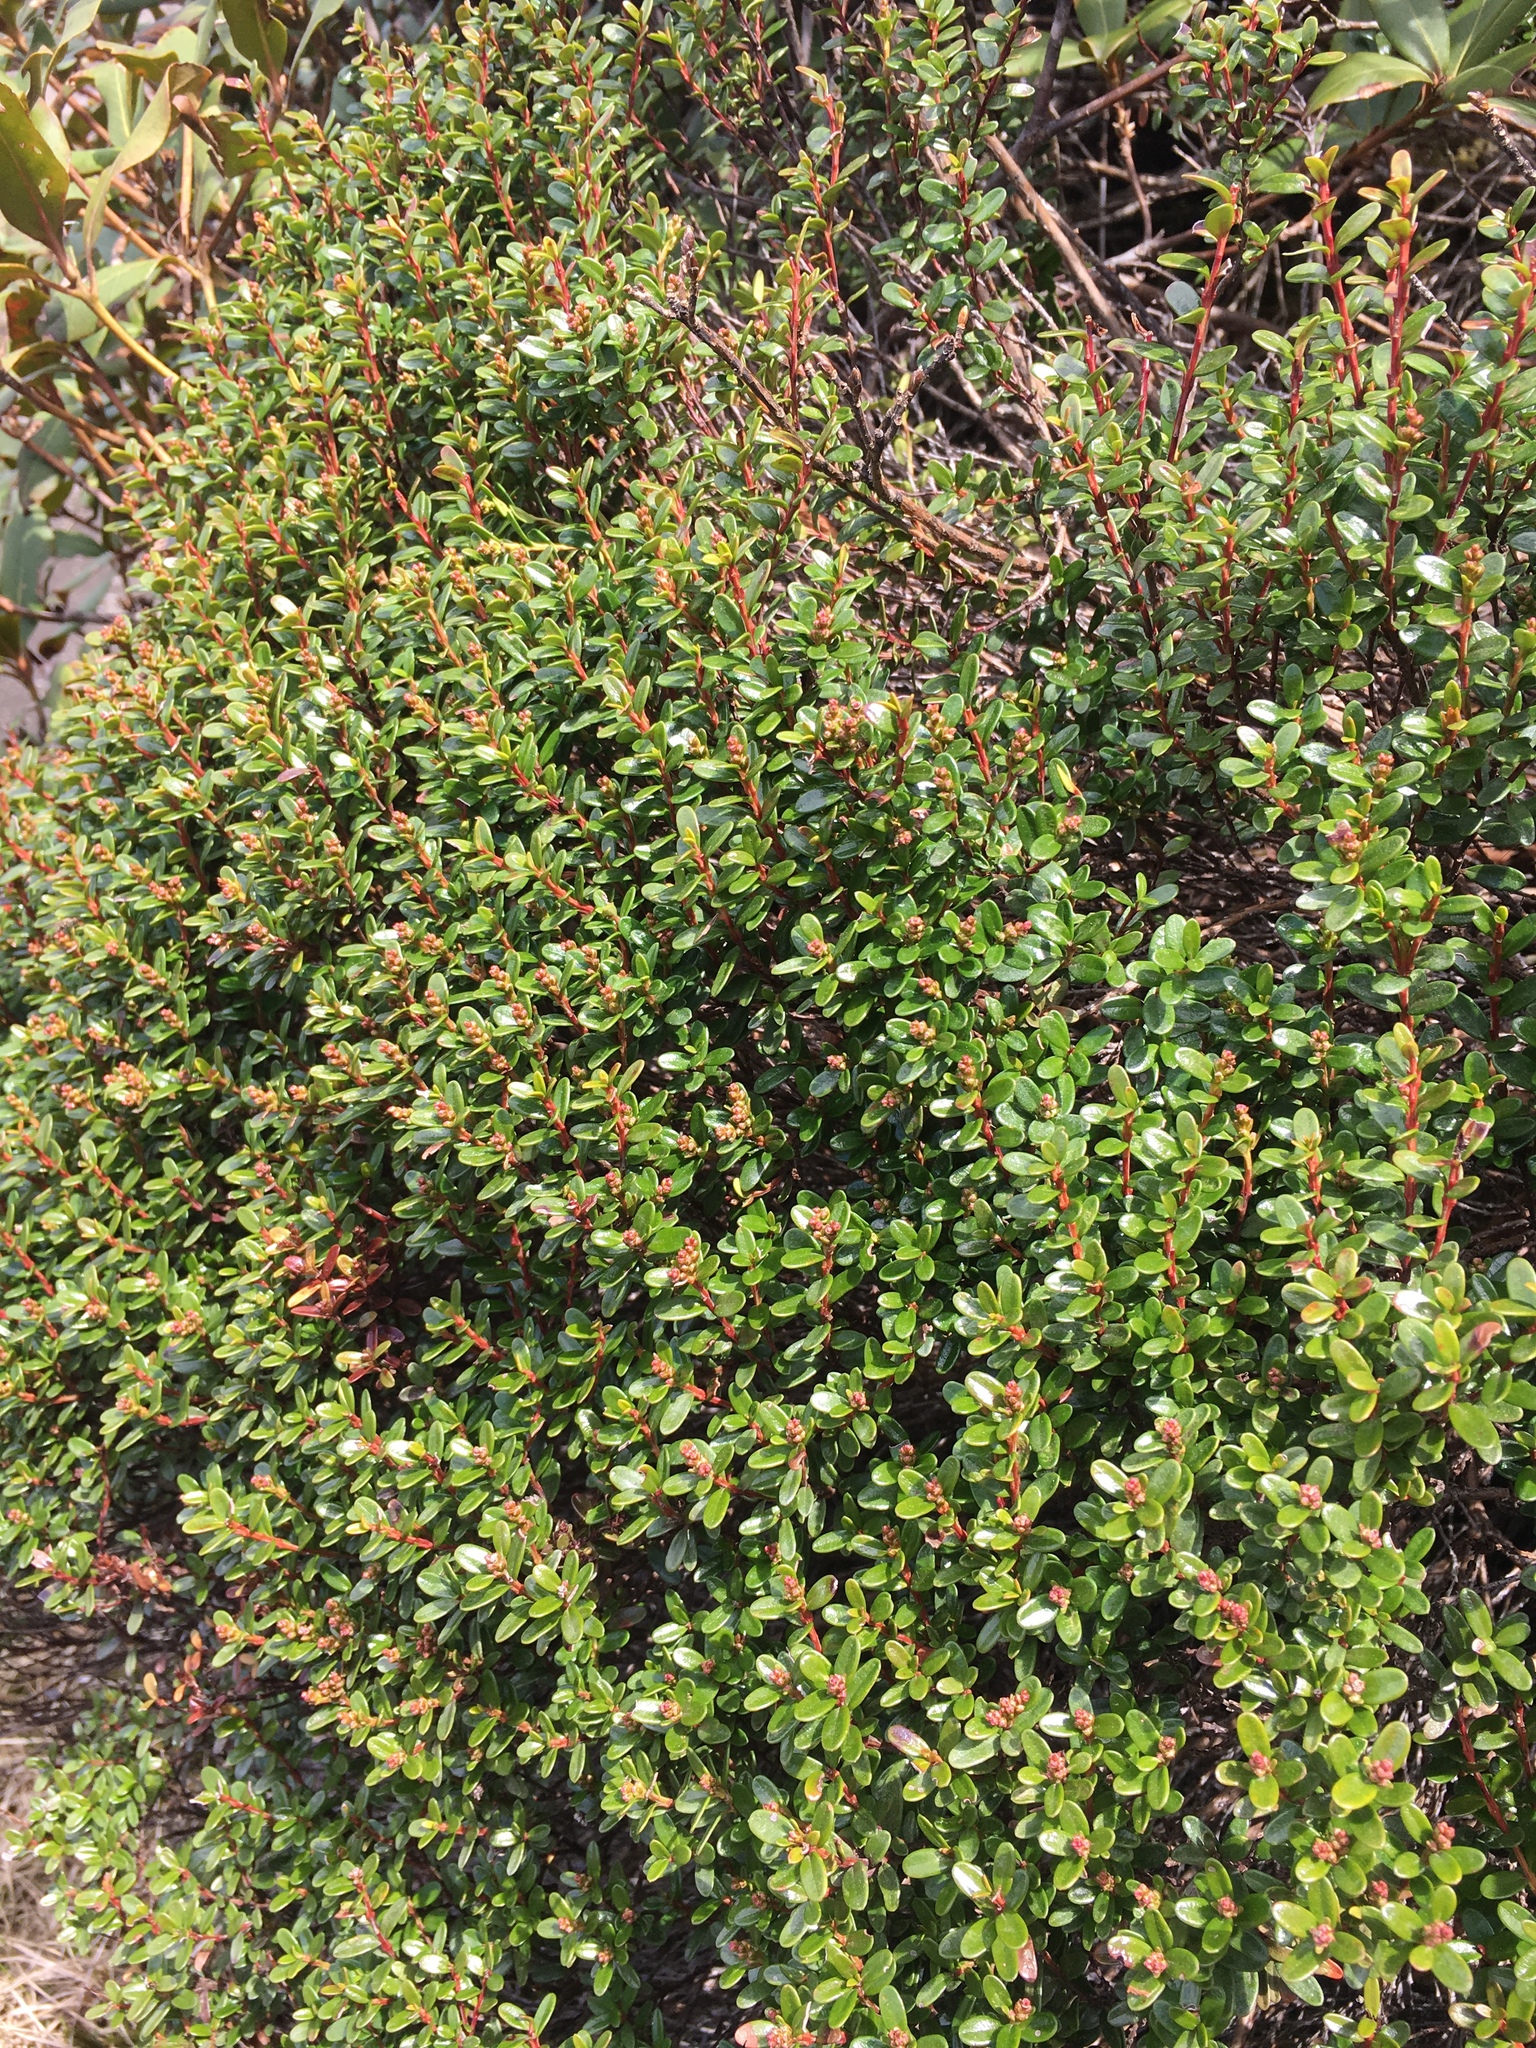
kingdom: Plantae
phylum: Tracheophyta
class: Magnoliopsida
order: Ericales
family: Ericaceae
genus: Kalmia
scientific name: Kalmia buxifolia
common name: Sandmyrtle
